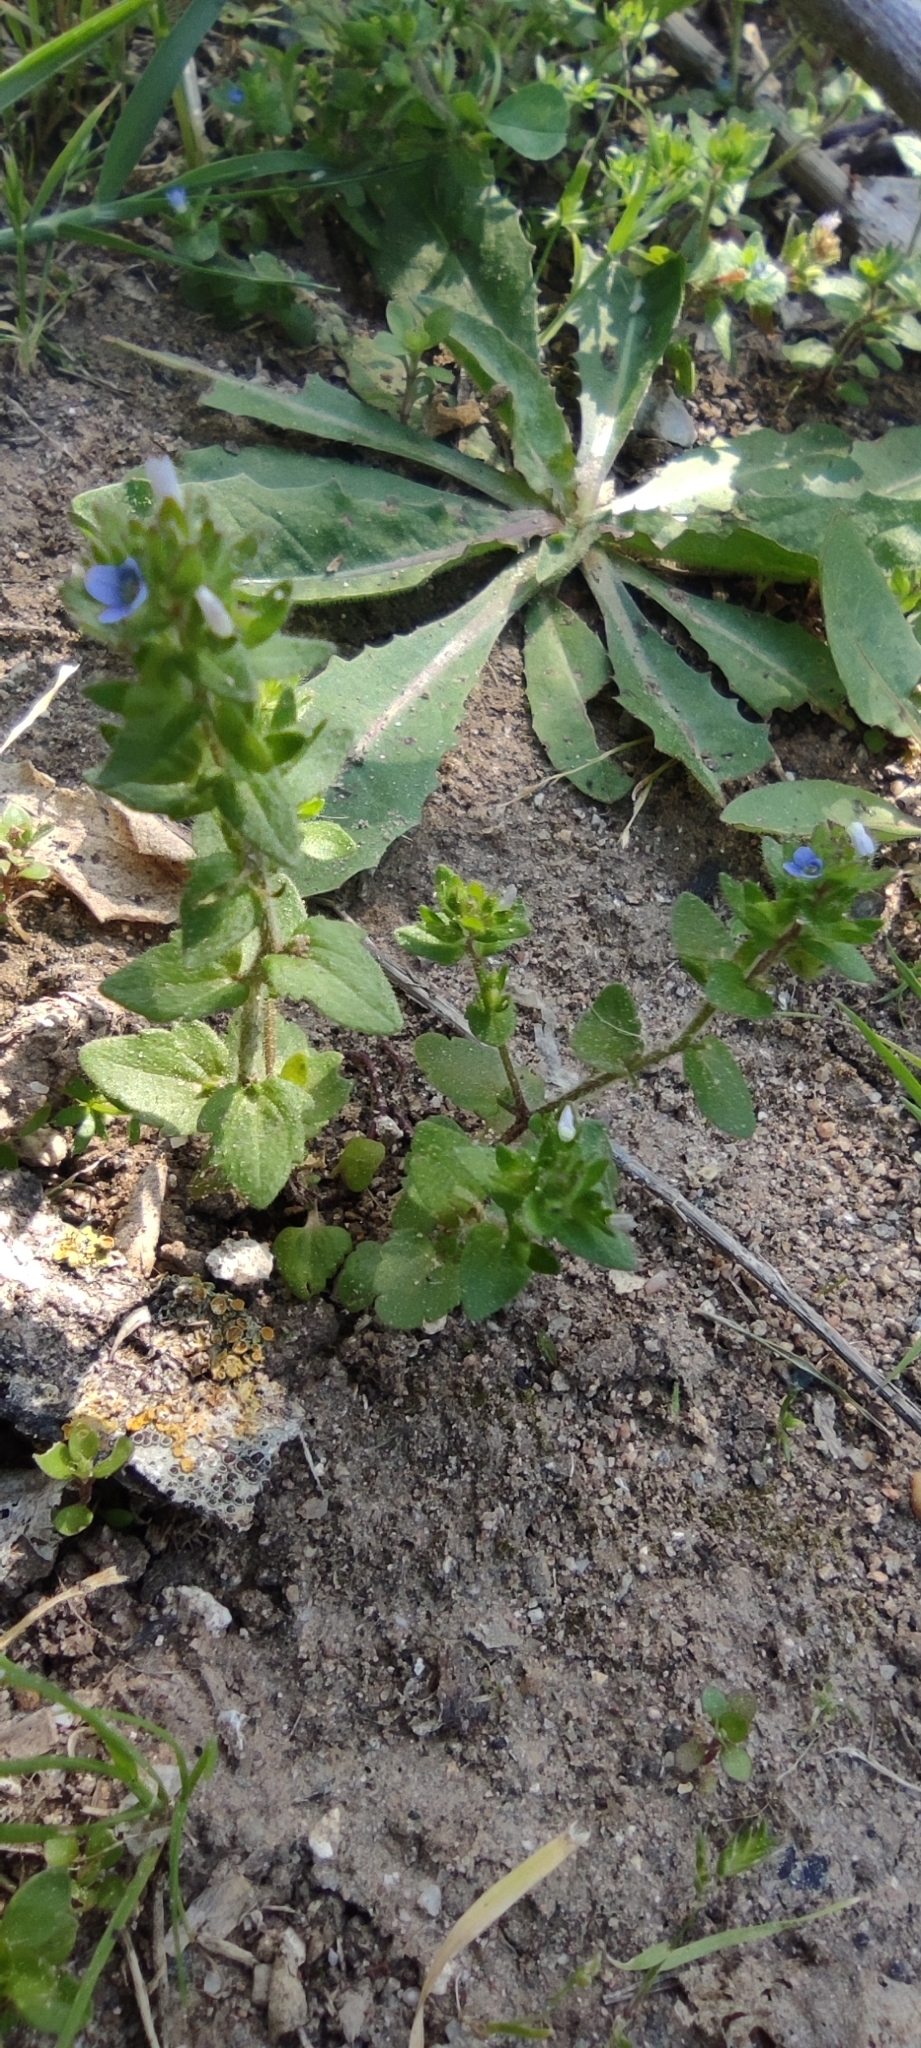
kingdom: Plantae
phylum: Tracheophyta
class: Magnoliopsida
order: Lamiales
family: Plantaginaceae
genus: Veronica
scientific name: Veronica arvensis
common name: Corn speedwell
